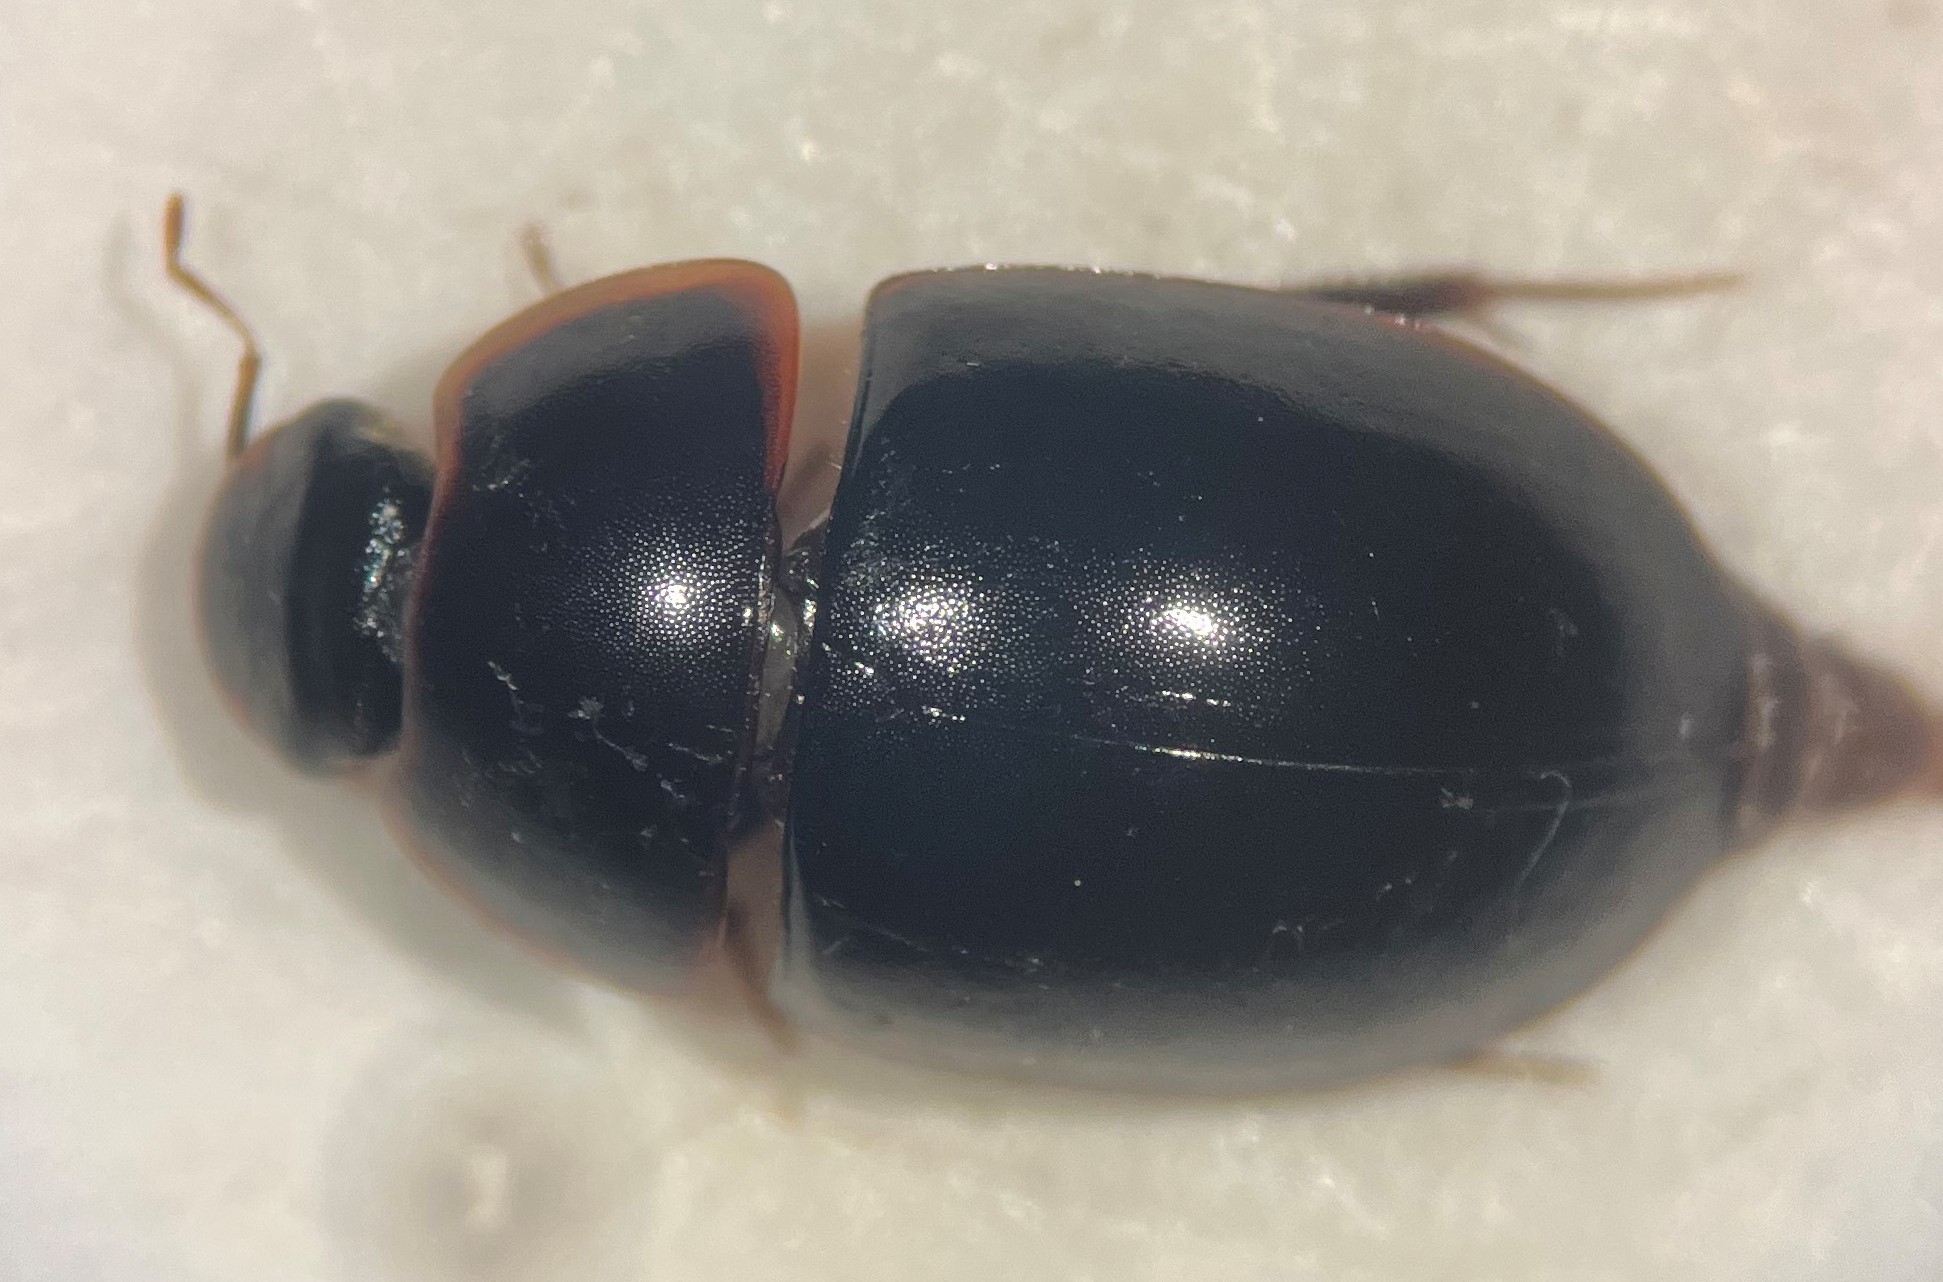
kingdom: Animalia
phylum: Arthropoda
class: Insecta
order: Coleoptera
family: Hydrophilidae
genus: Enochrus
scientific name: Enochrus cinctus
